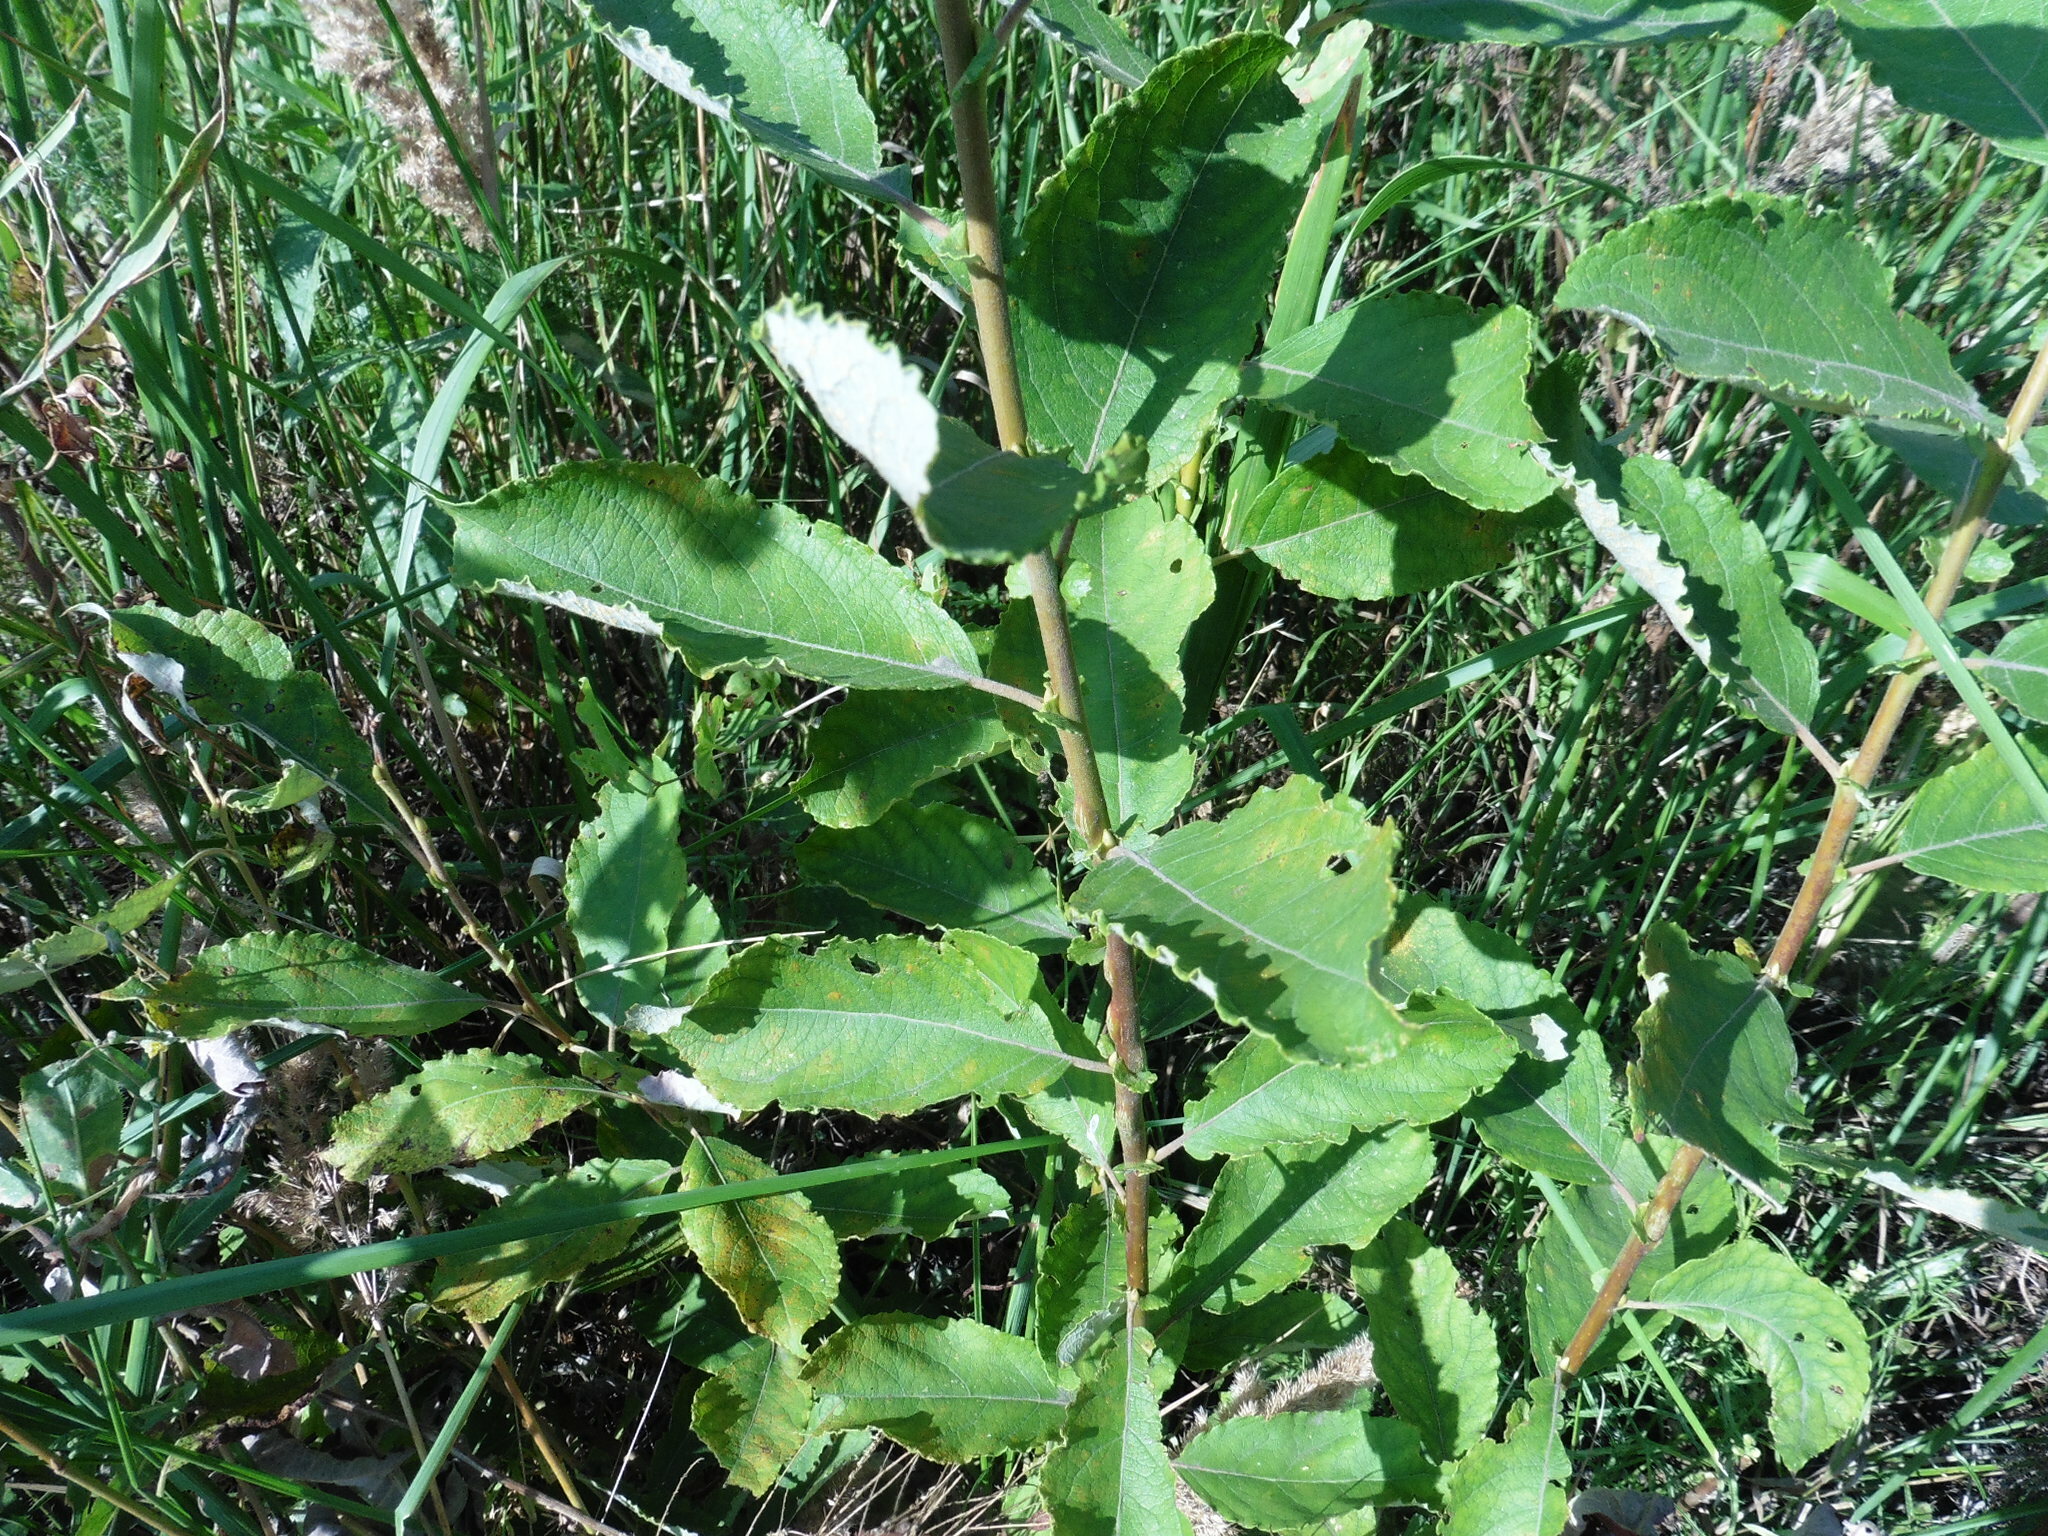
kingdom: Plantae
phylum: Tracheophyta
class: Magnoliopsida
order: Malpighiales
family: Salicaceae
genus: Salix
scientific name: Salix cinerea
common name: Common sallow
